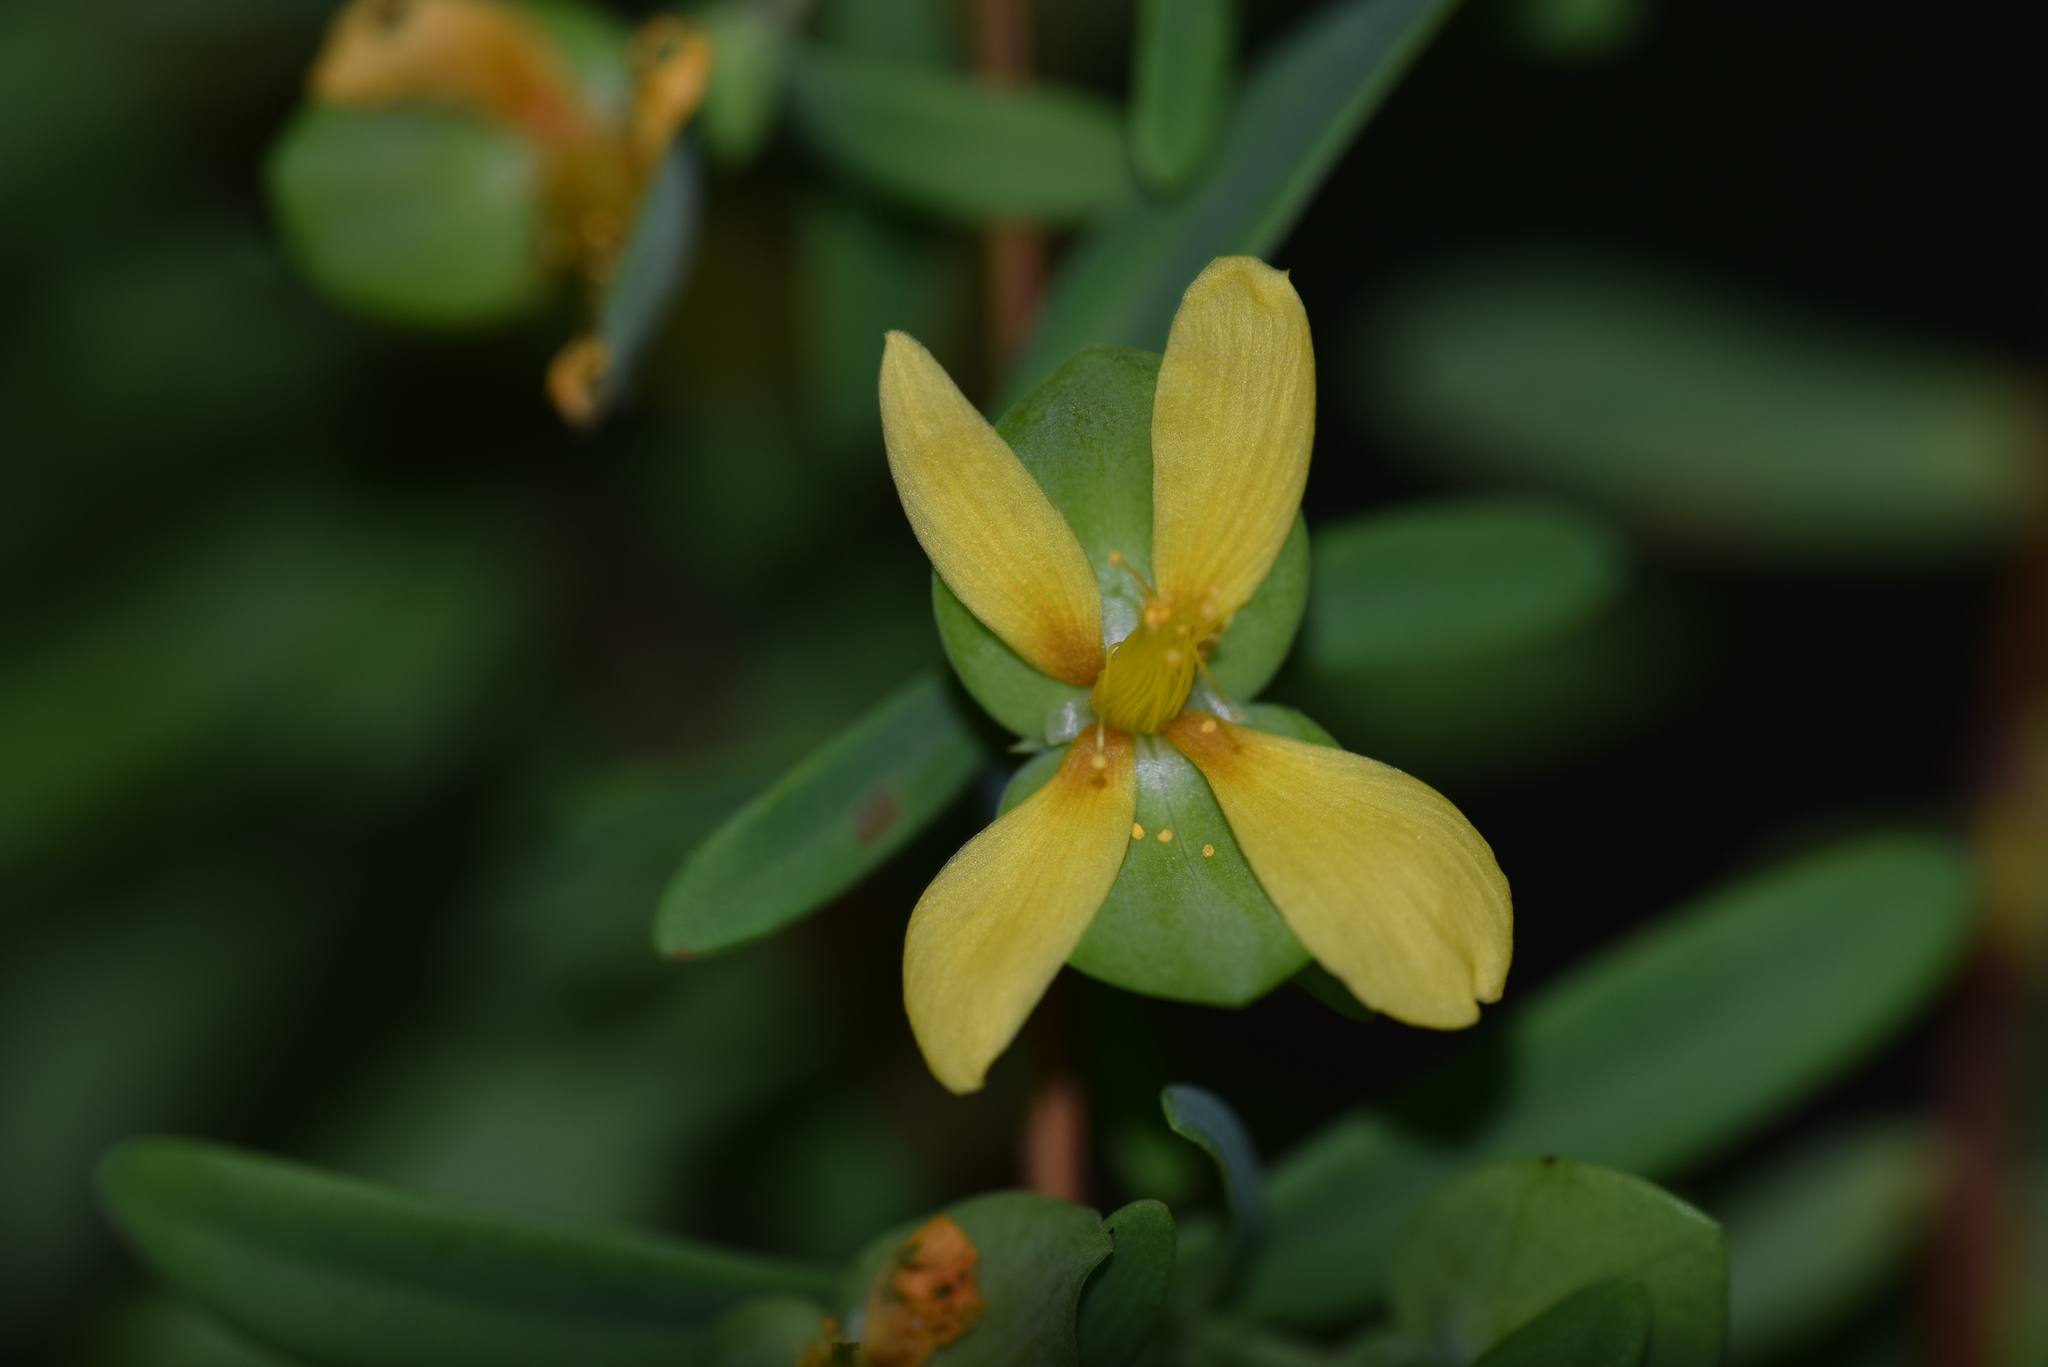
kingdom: Plantae
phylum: Tracheophyta
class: Magnoliopsida
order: Malpighiales
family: Hypericaceae
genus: Hypericum
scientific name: Hypericum hypericoides
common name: St. andrew's cross
